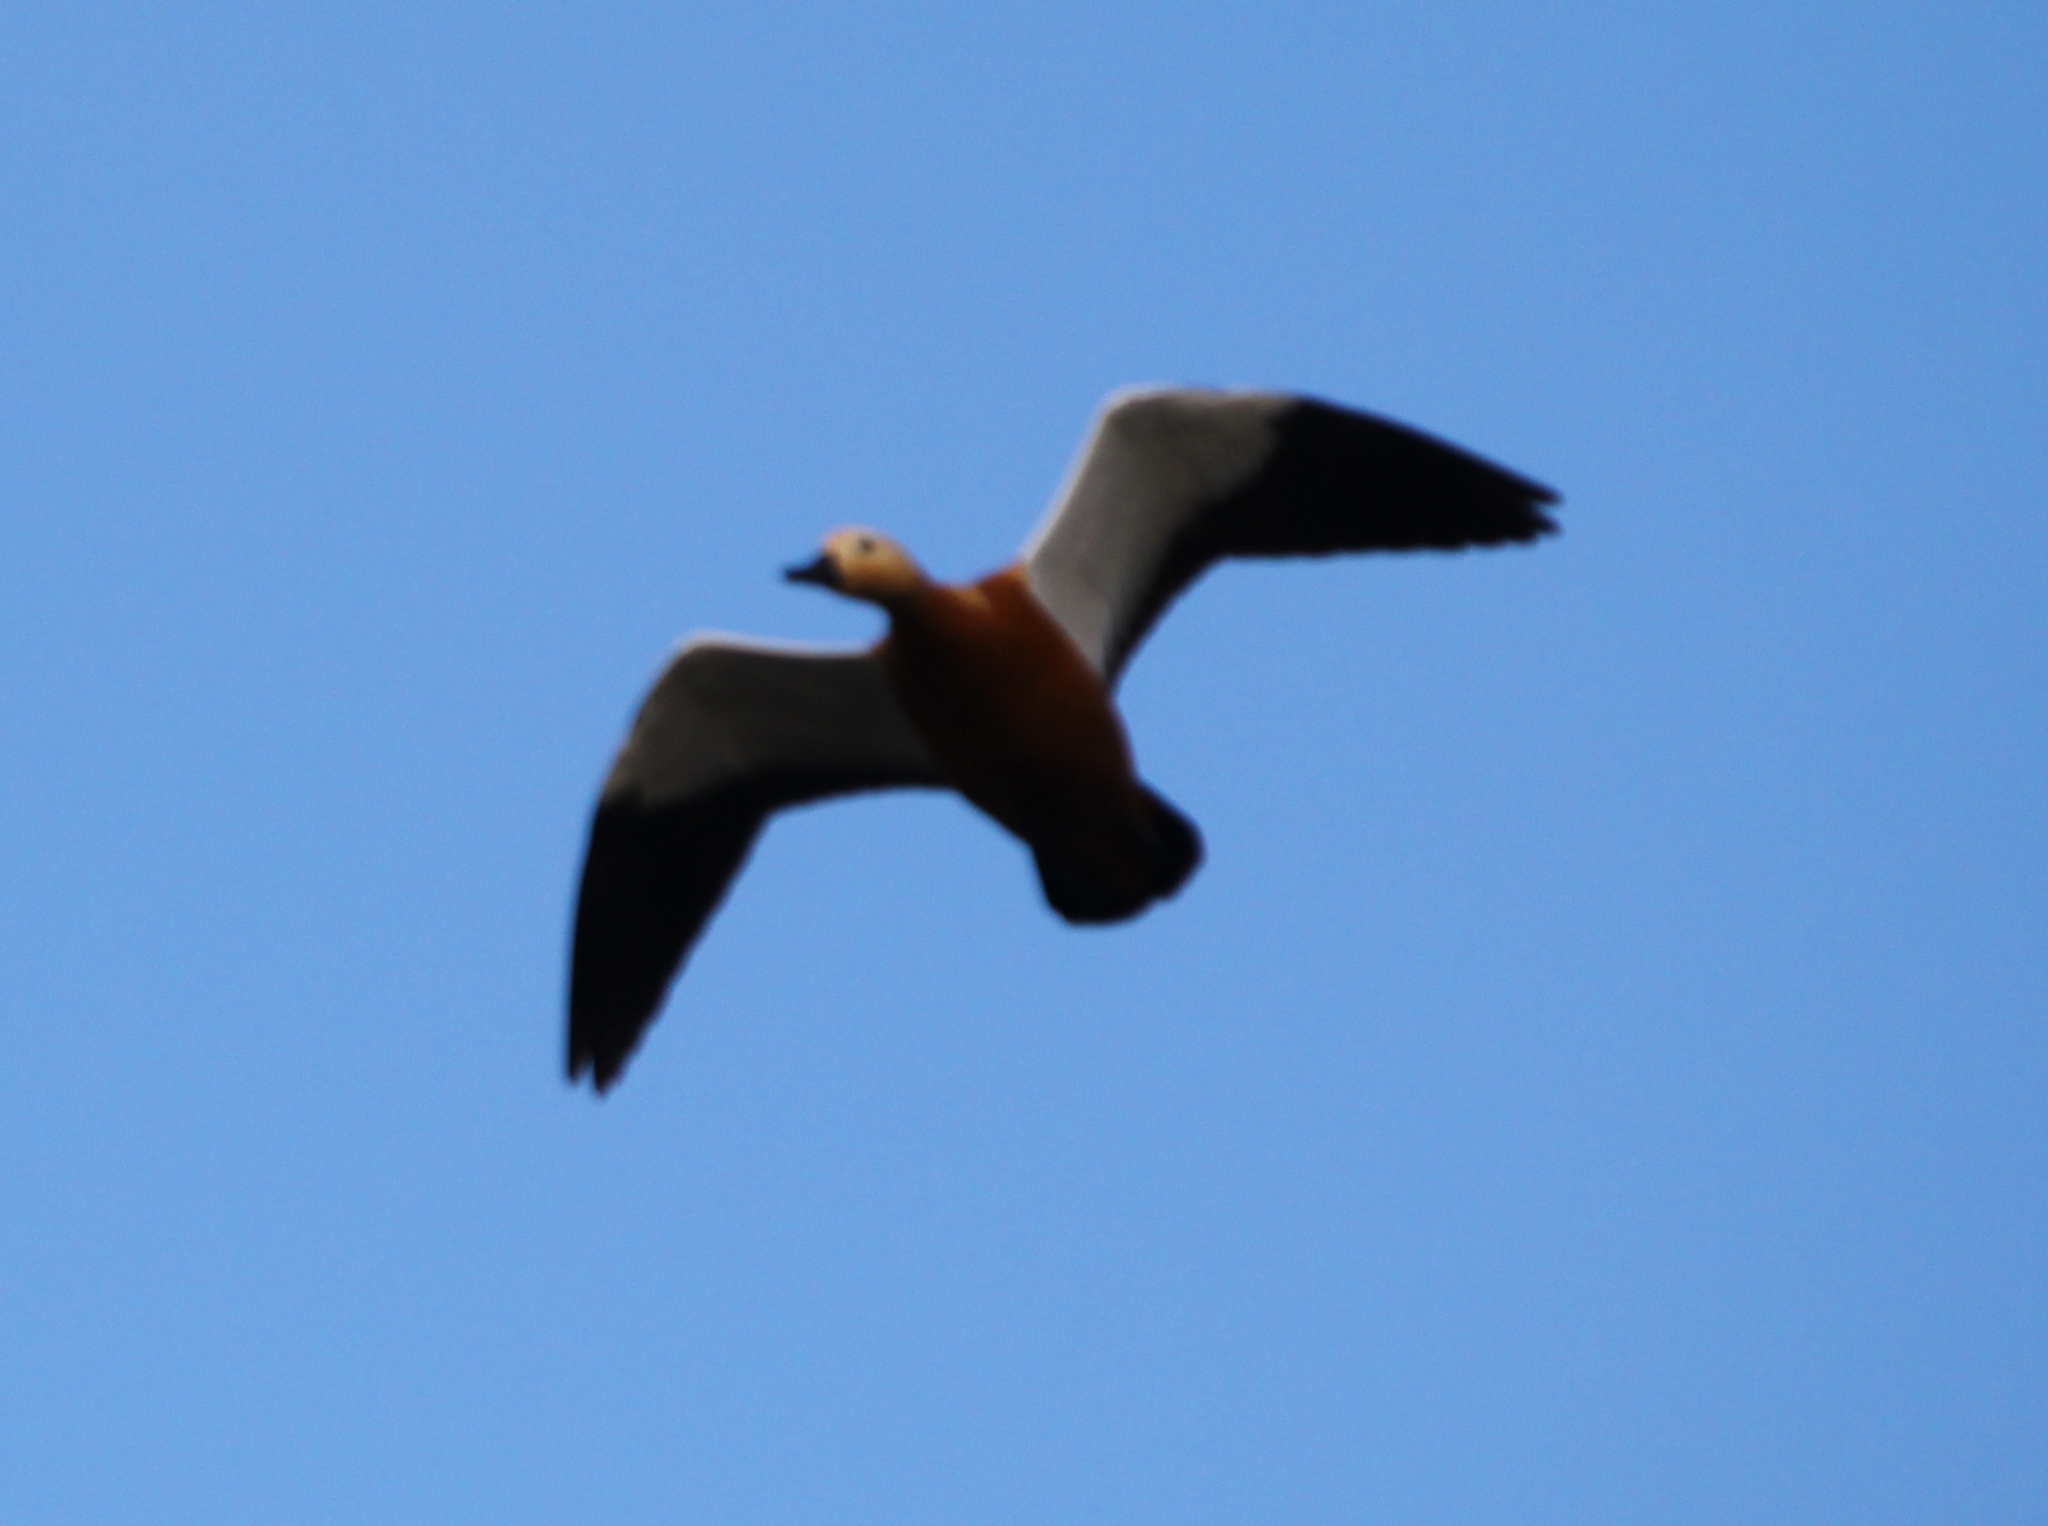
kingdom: Animalia
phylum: Chordata
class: Aves
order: Anseriformes
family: Anatidae
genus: Tadorna
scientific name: Tadorna ferruginea
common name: Ruddy shelduck
